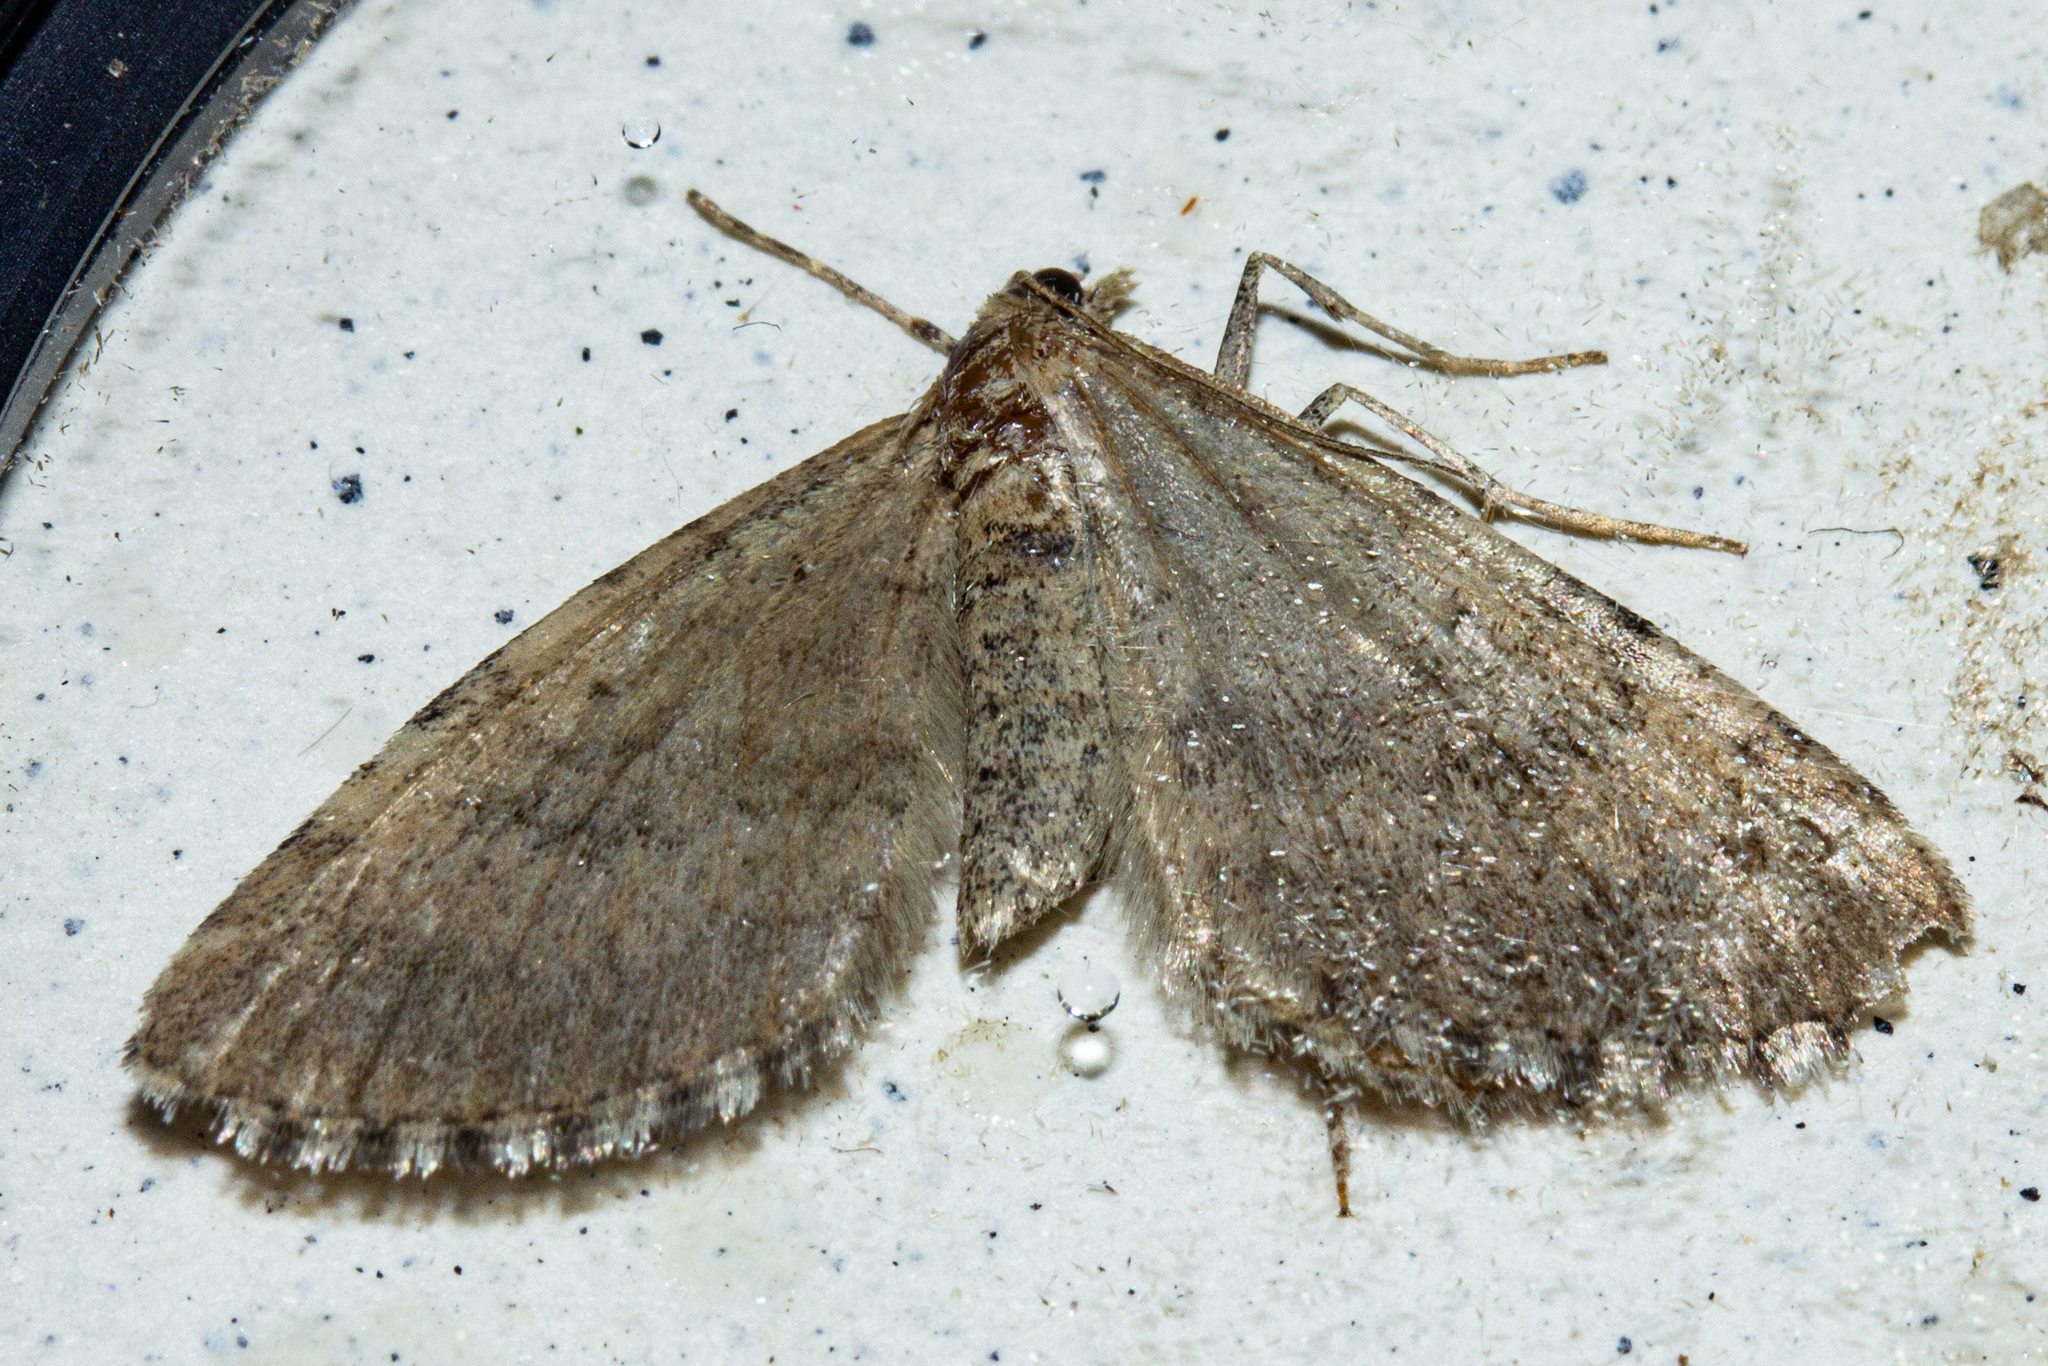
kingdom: Animalia
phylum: Arthropoda
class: Insecta
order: Lepidoptera
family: Geometridae
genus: Asaphodes
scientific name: Asaphodes aegrota
